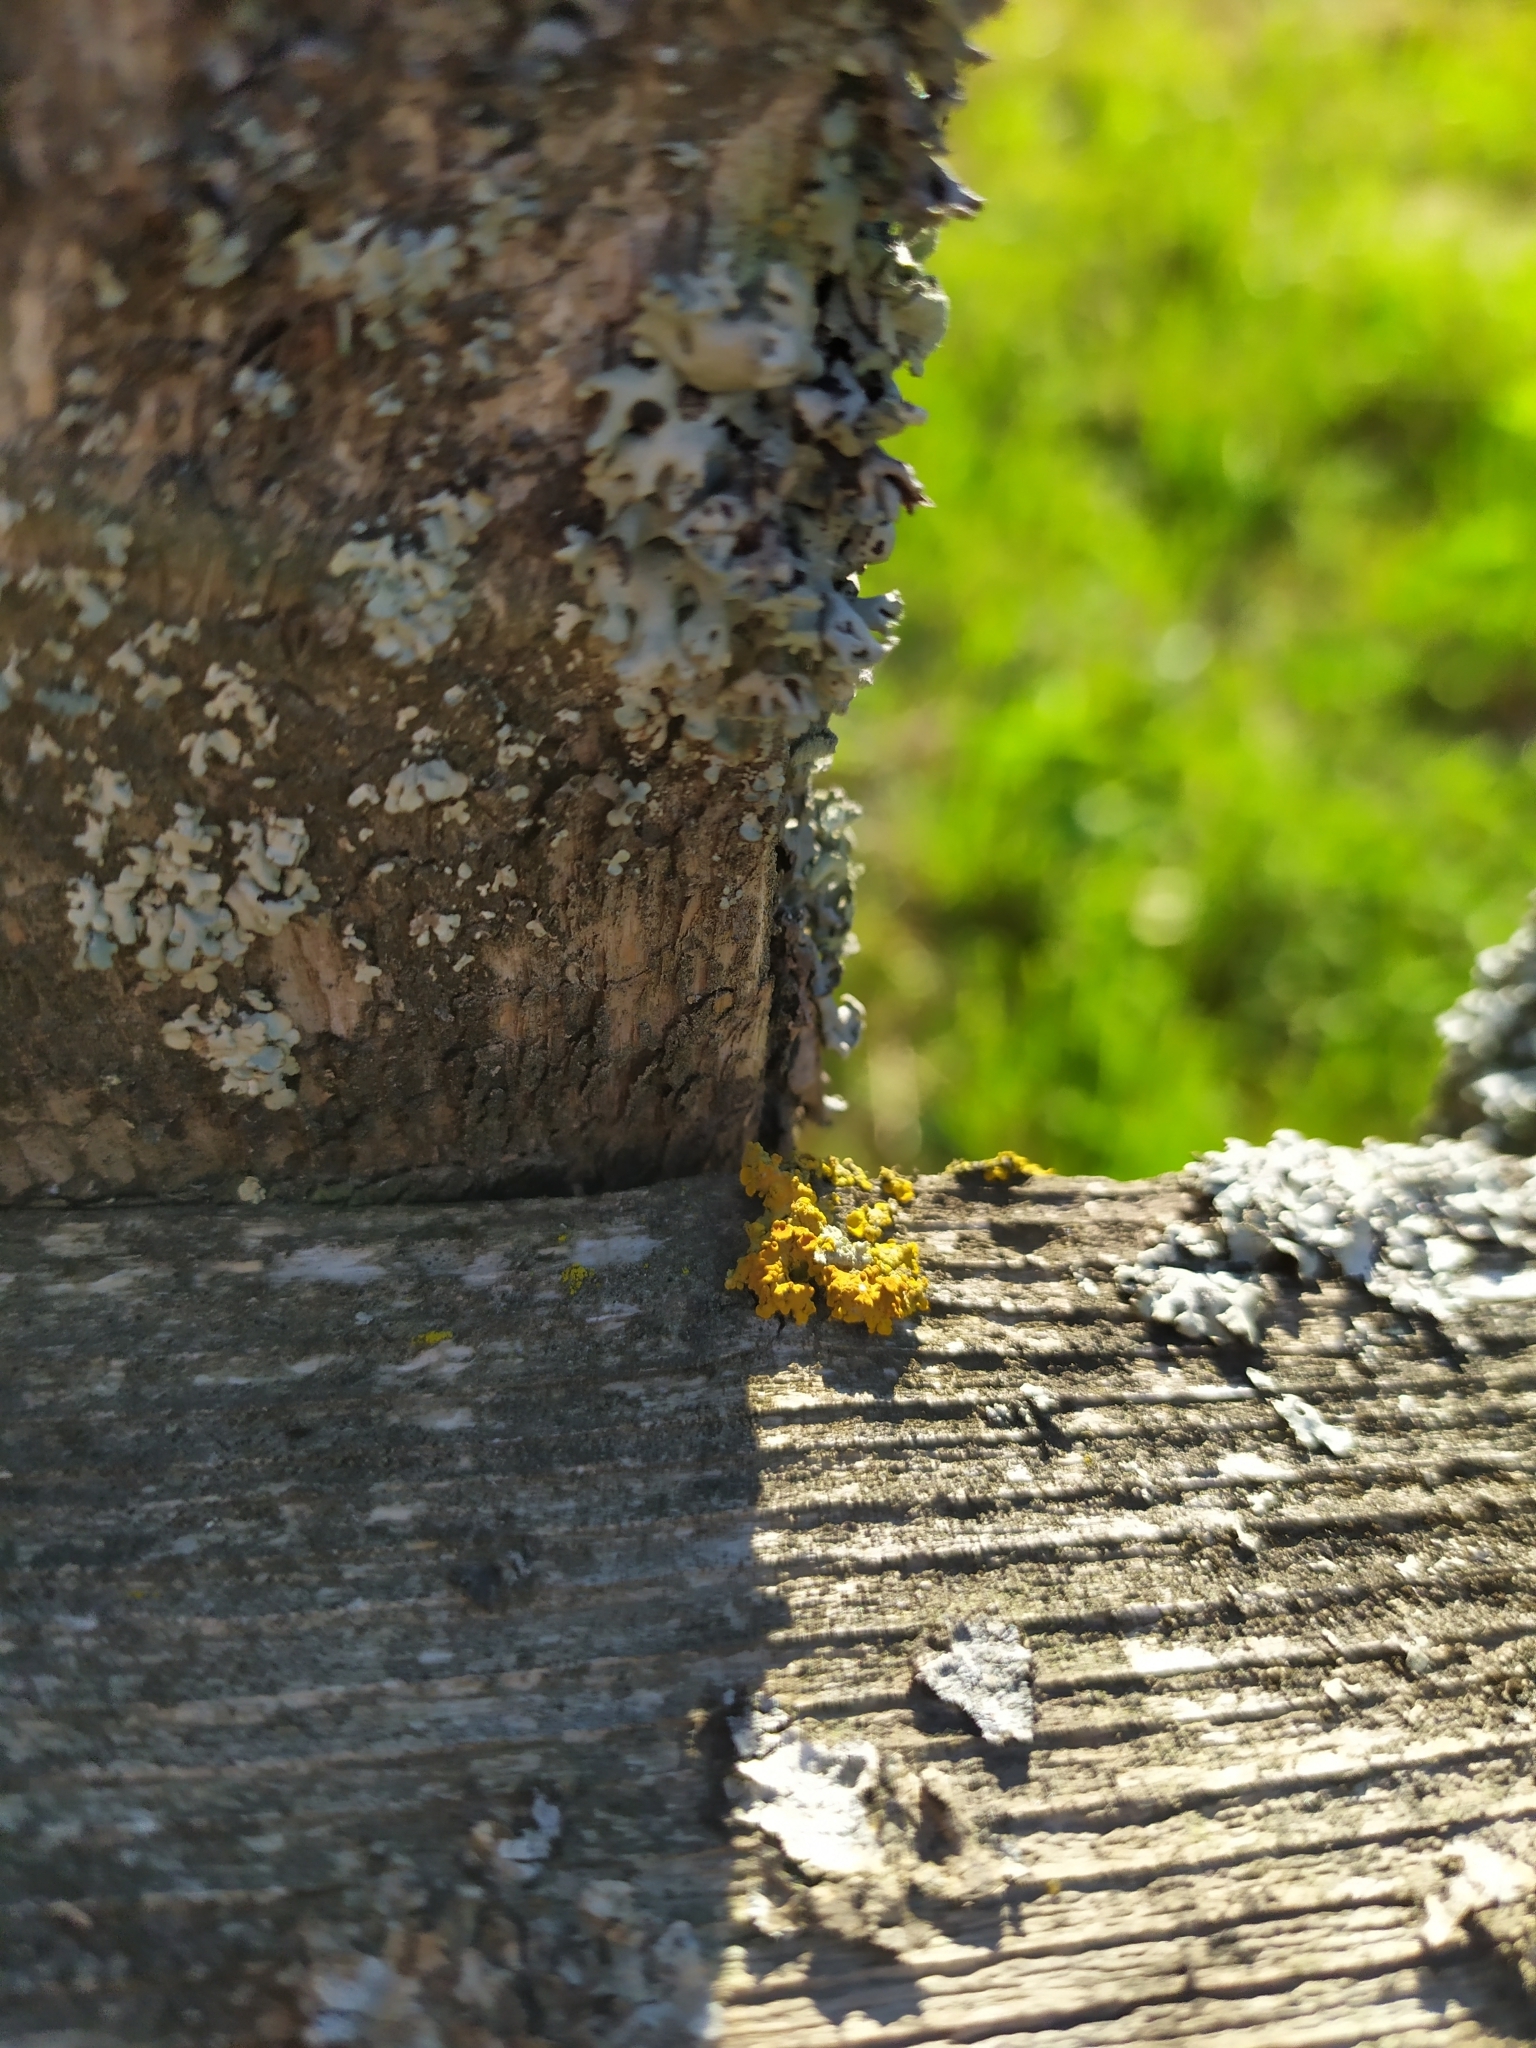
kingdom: Fungi
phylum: Ascomycota
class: Lecanoromycetes
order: Teloschistales
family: Teloschistaceae
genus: Xanthoria
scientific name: Xanthoria parietina
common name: Common orange lichen
